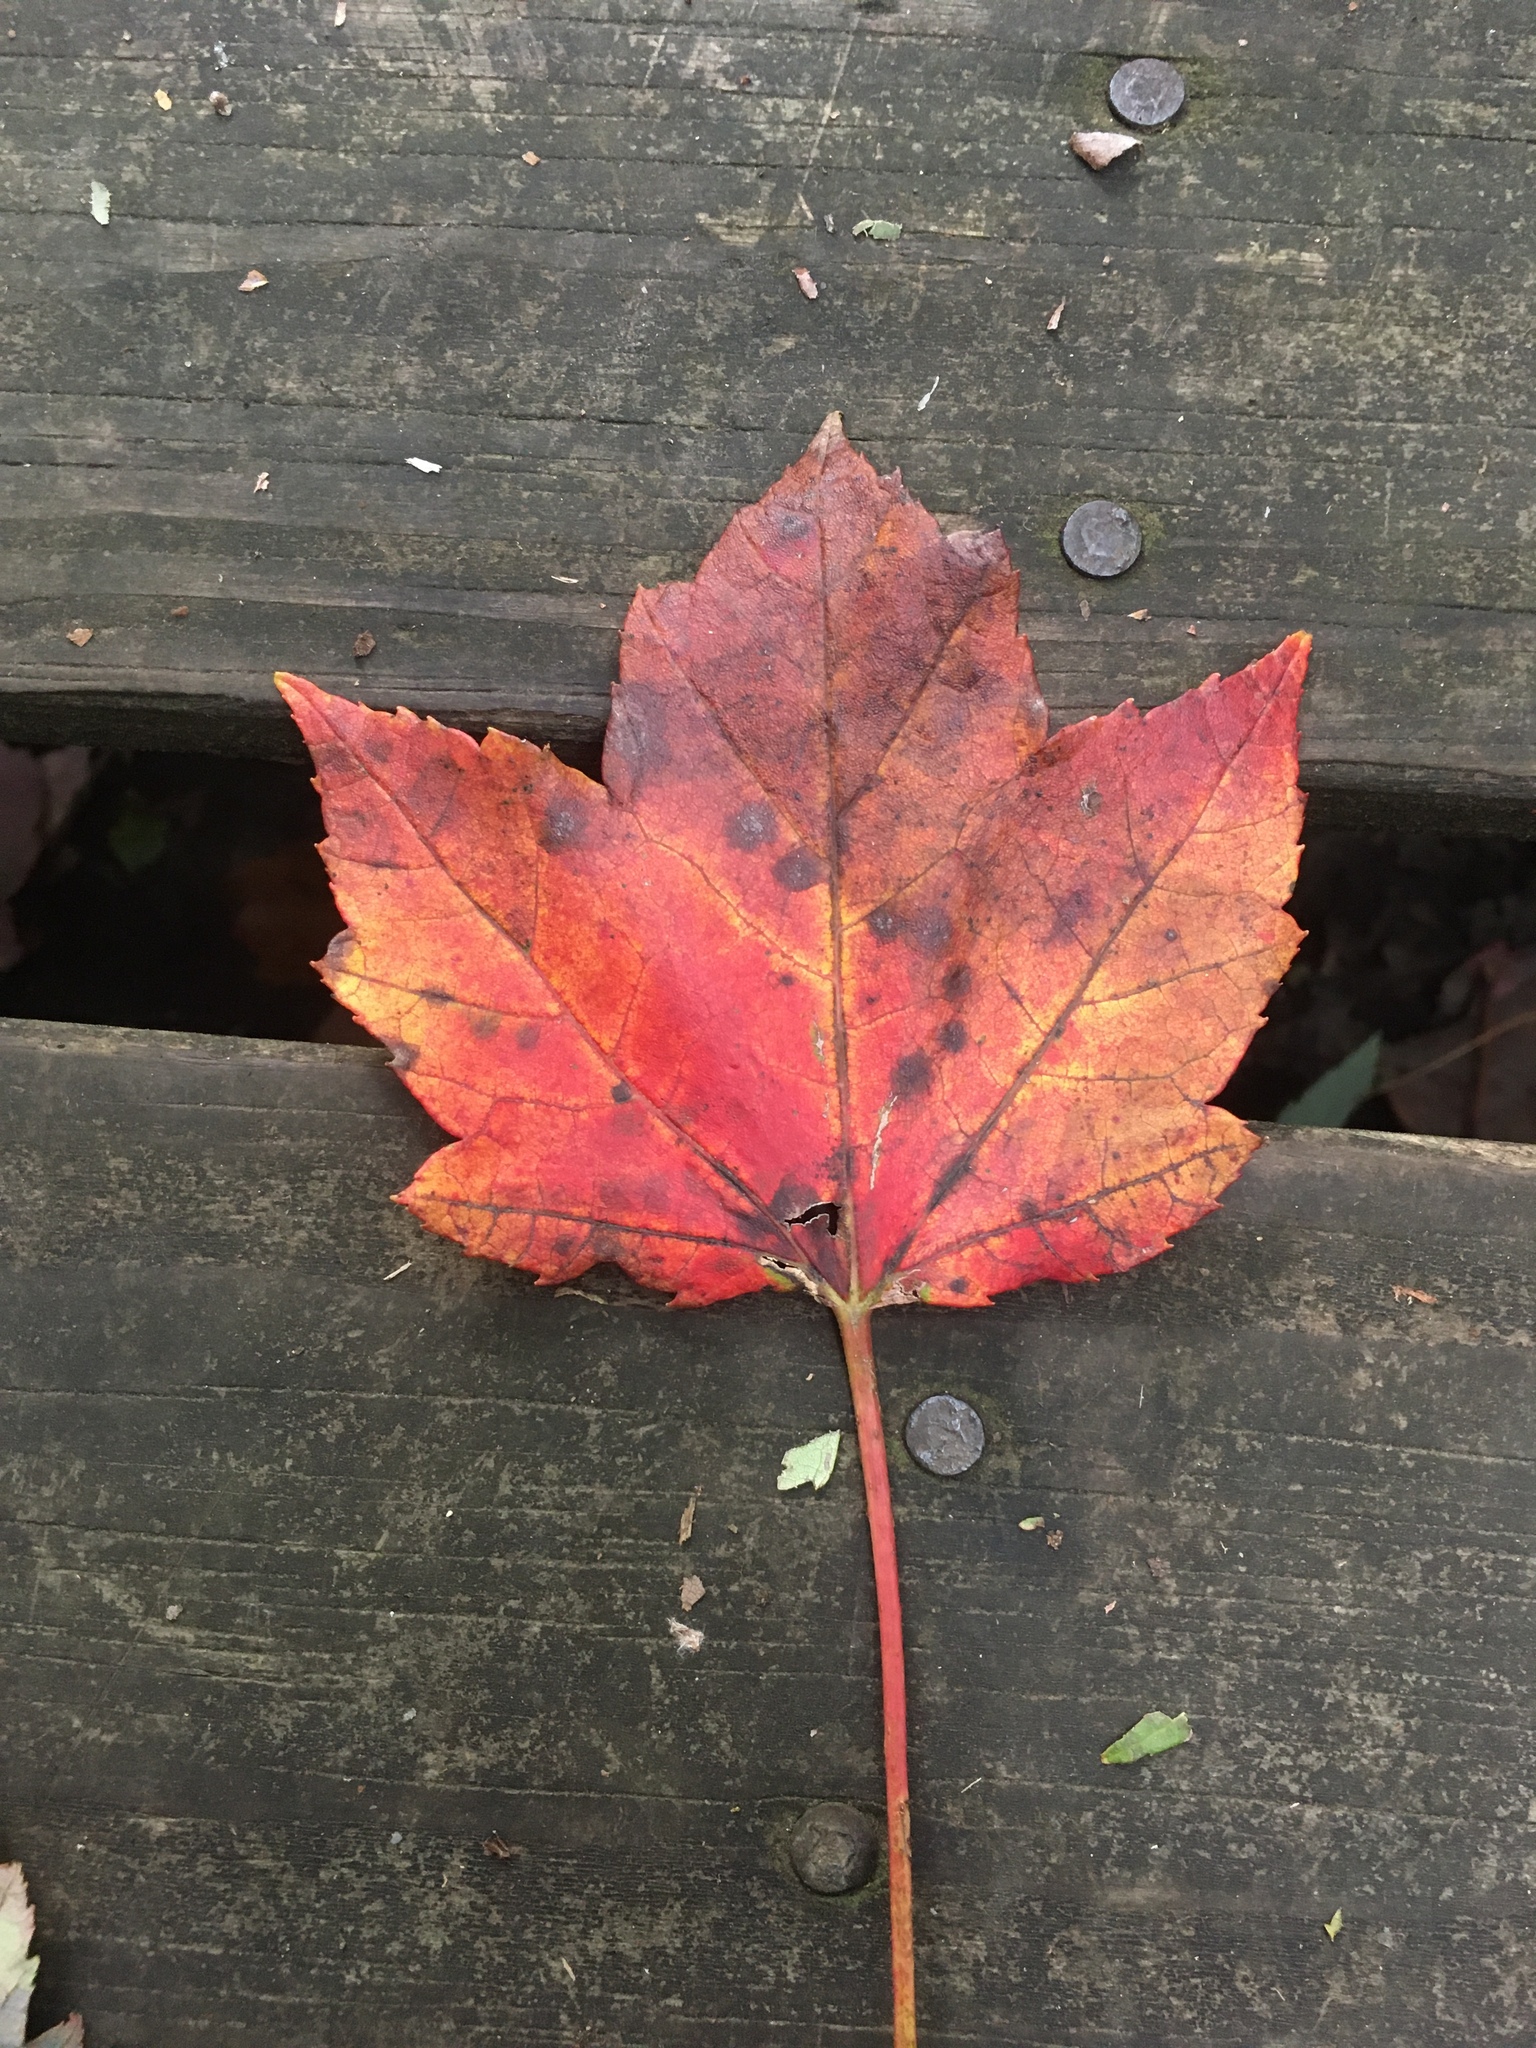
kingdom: Plantae
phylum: Tracheophyta
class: Magnoliopsida
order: Sapindales
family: Sapindaceae
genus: Acer
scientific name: Acer rubrum
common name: Red maple
